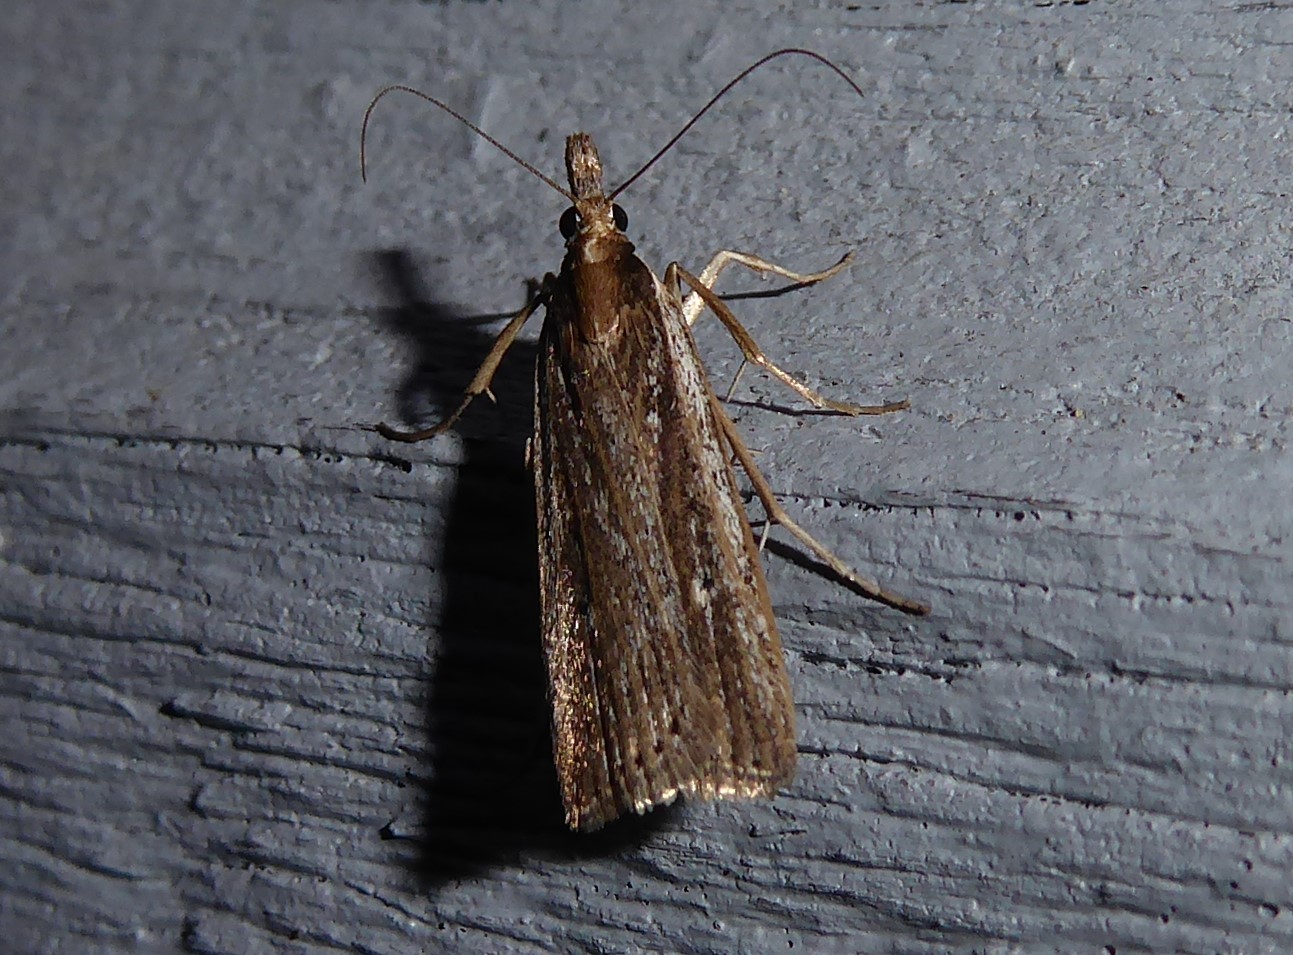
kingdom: Animalia
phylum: Arthropoda
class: Insecta
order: Lepidoptera
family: Crambidae
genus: Eudonia
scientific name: Eudonia sabulosella
